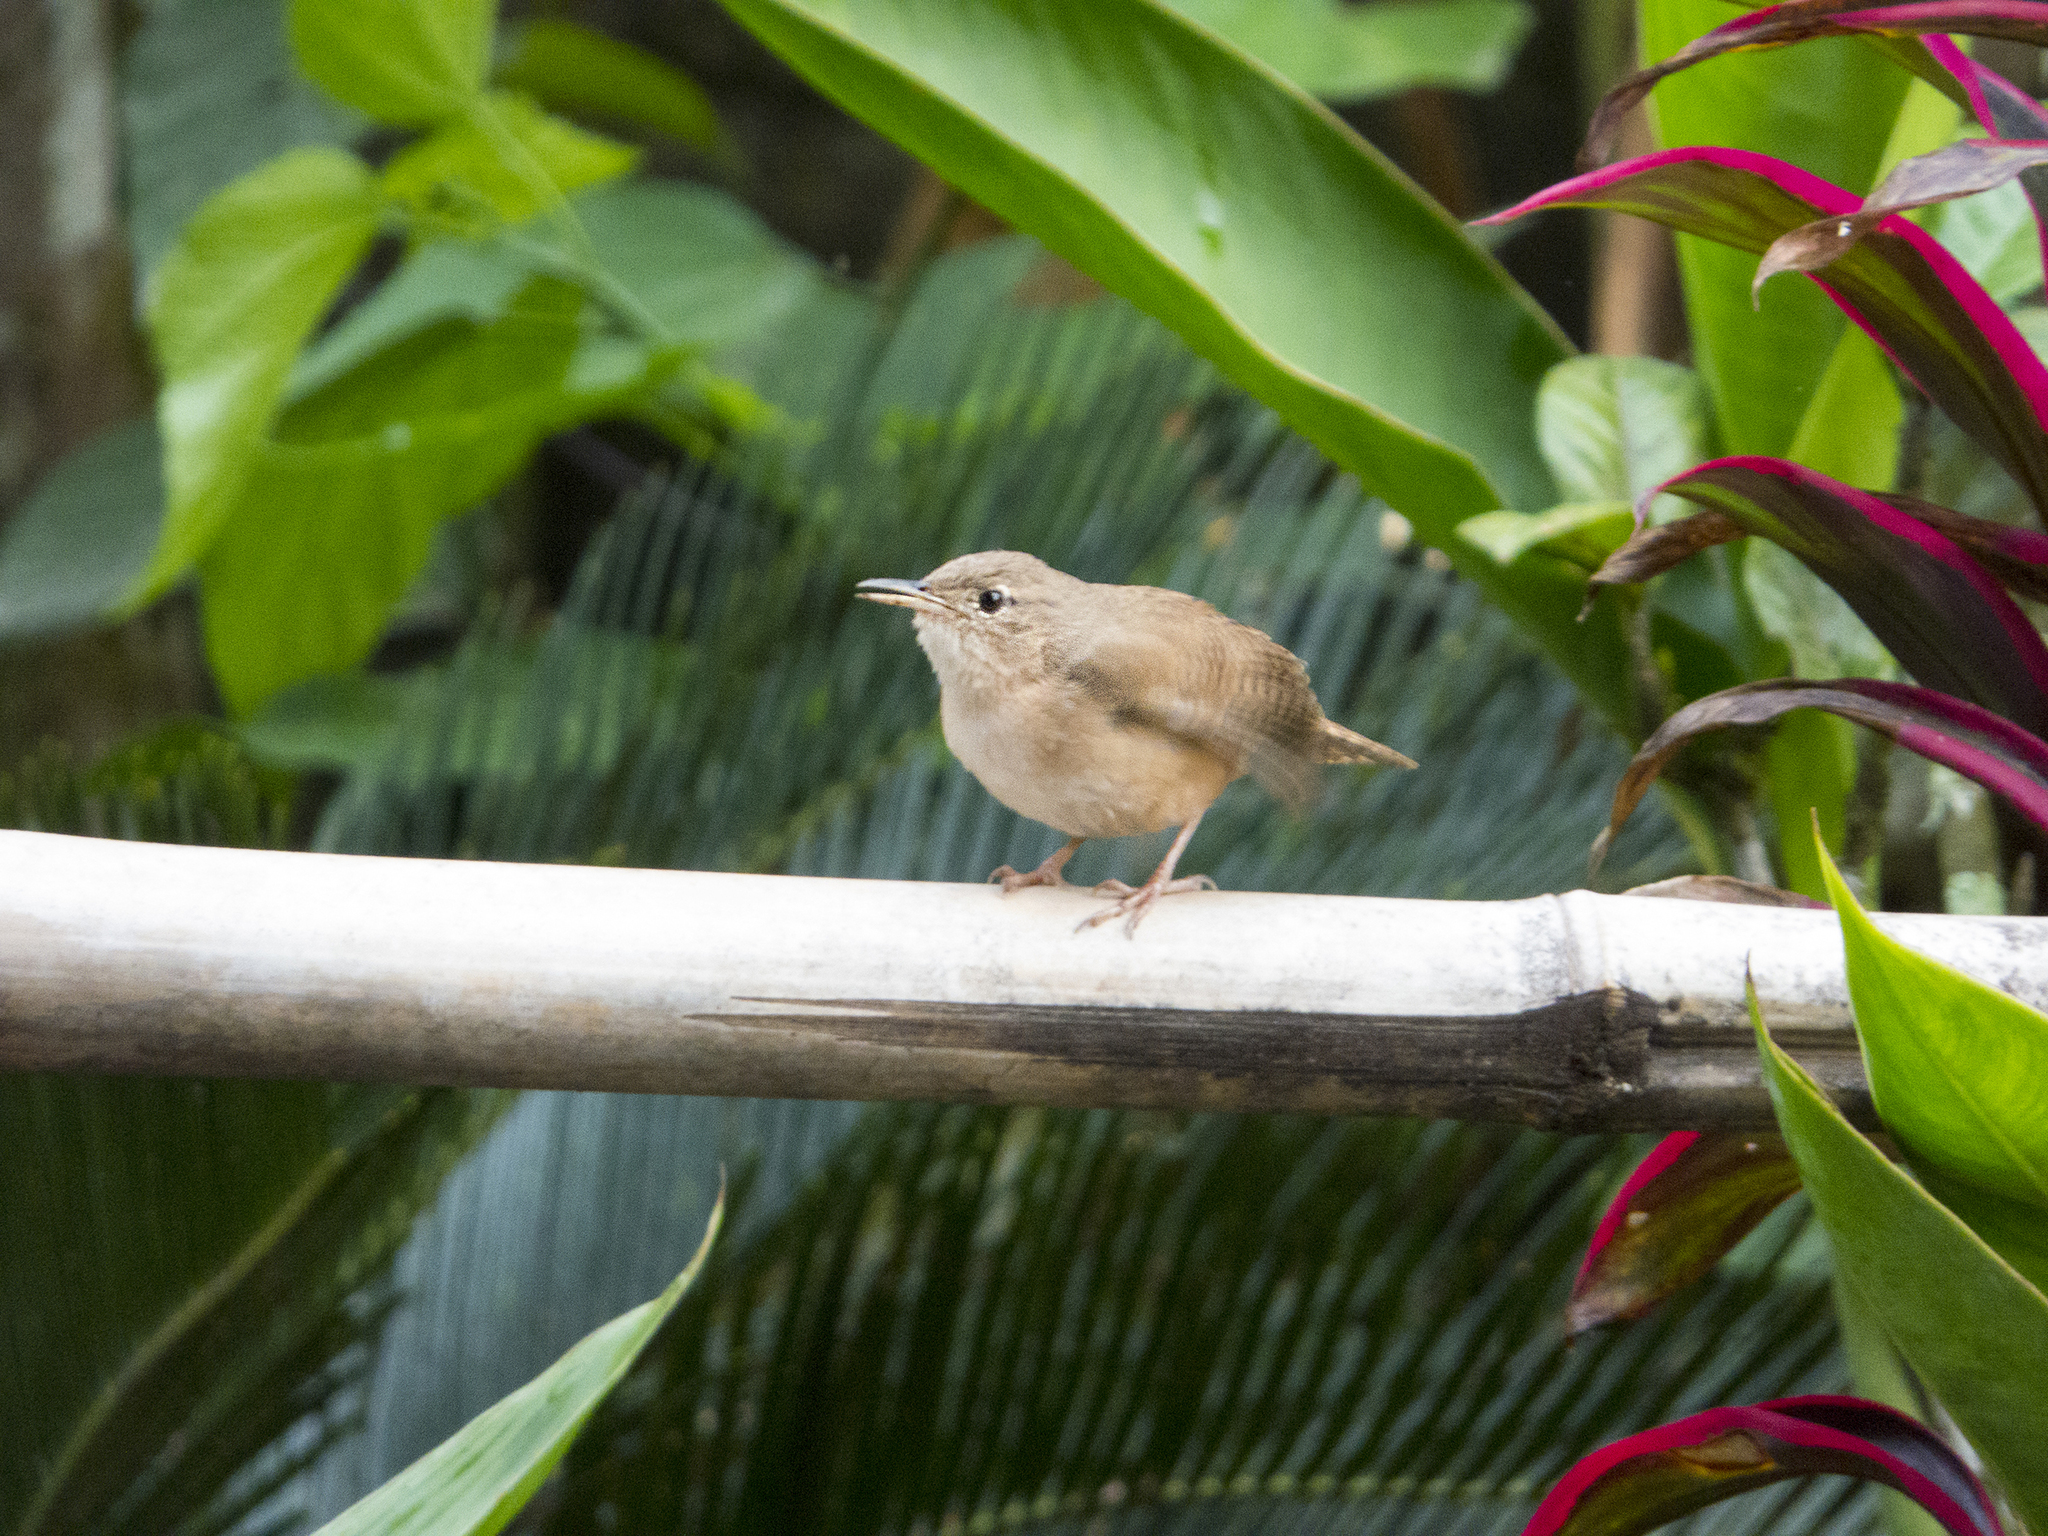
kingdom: Animalia
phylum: Chordata
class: Aves
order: Passeriformes
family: Troglodytidae
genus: Troglodytes
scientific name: Troglodytes aedon
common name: House wren
